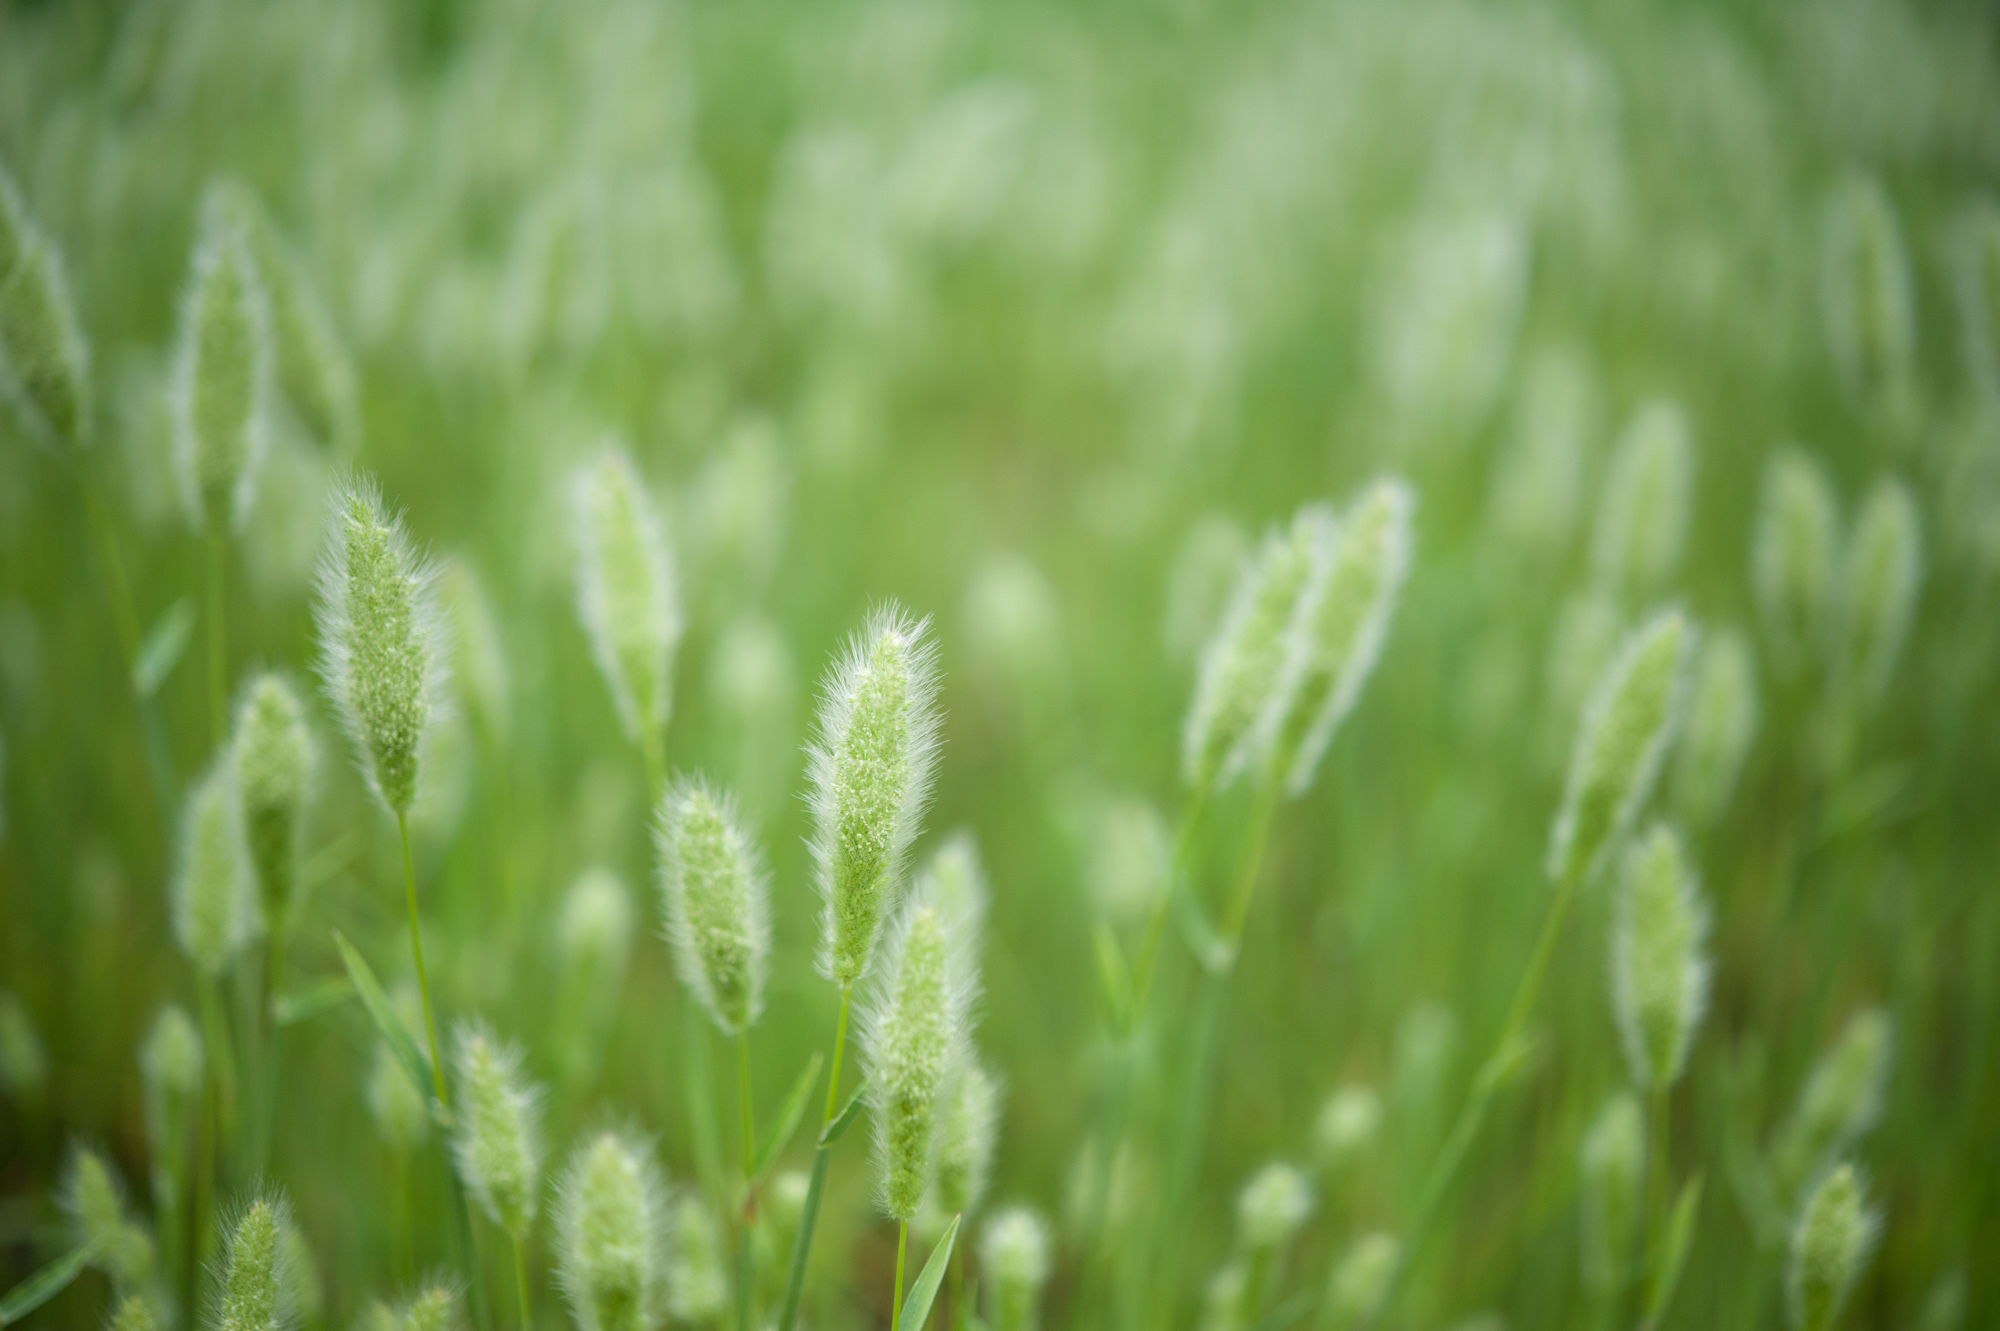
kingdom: Plantae
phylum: Tracheophyta
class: Liliopsida
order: Poales
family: Poaceae
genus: Polypogon
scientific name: Polypogon monspeliensis
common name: Annual rabbitsfoot grass
